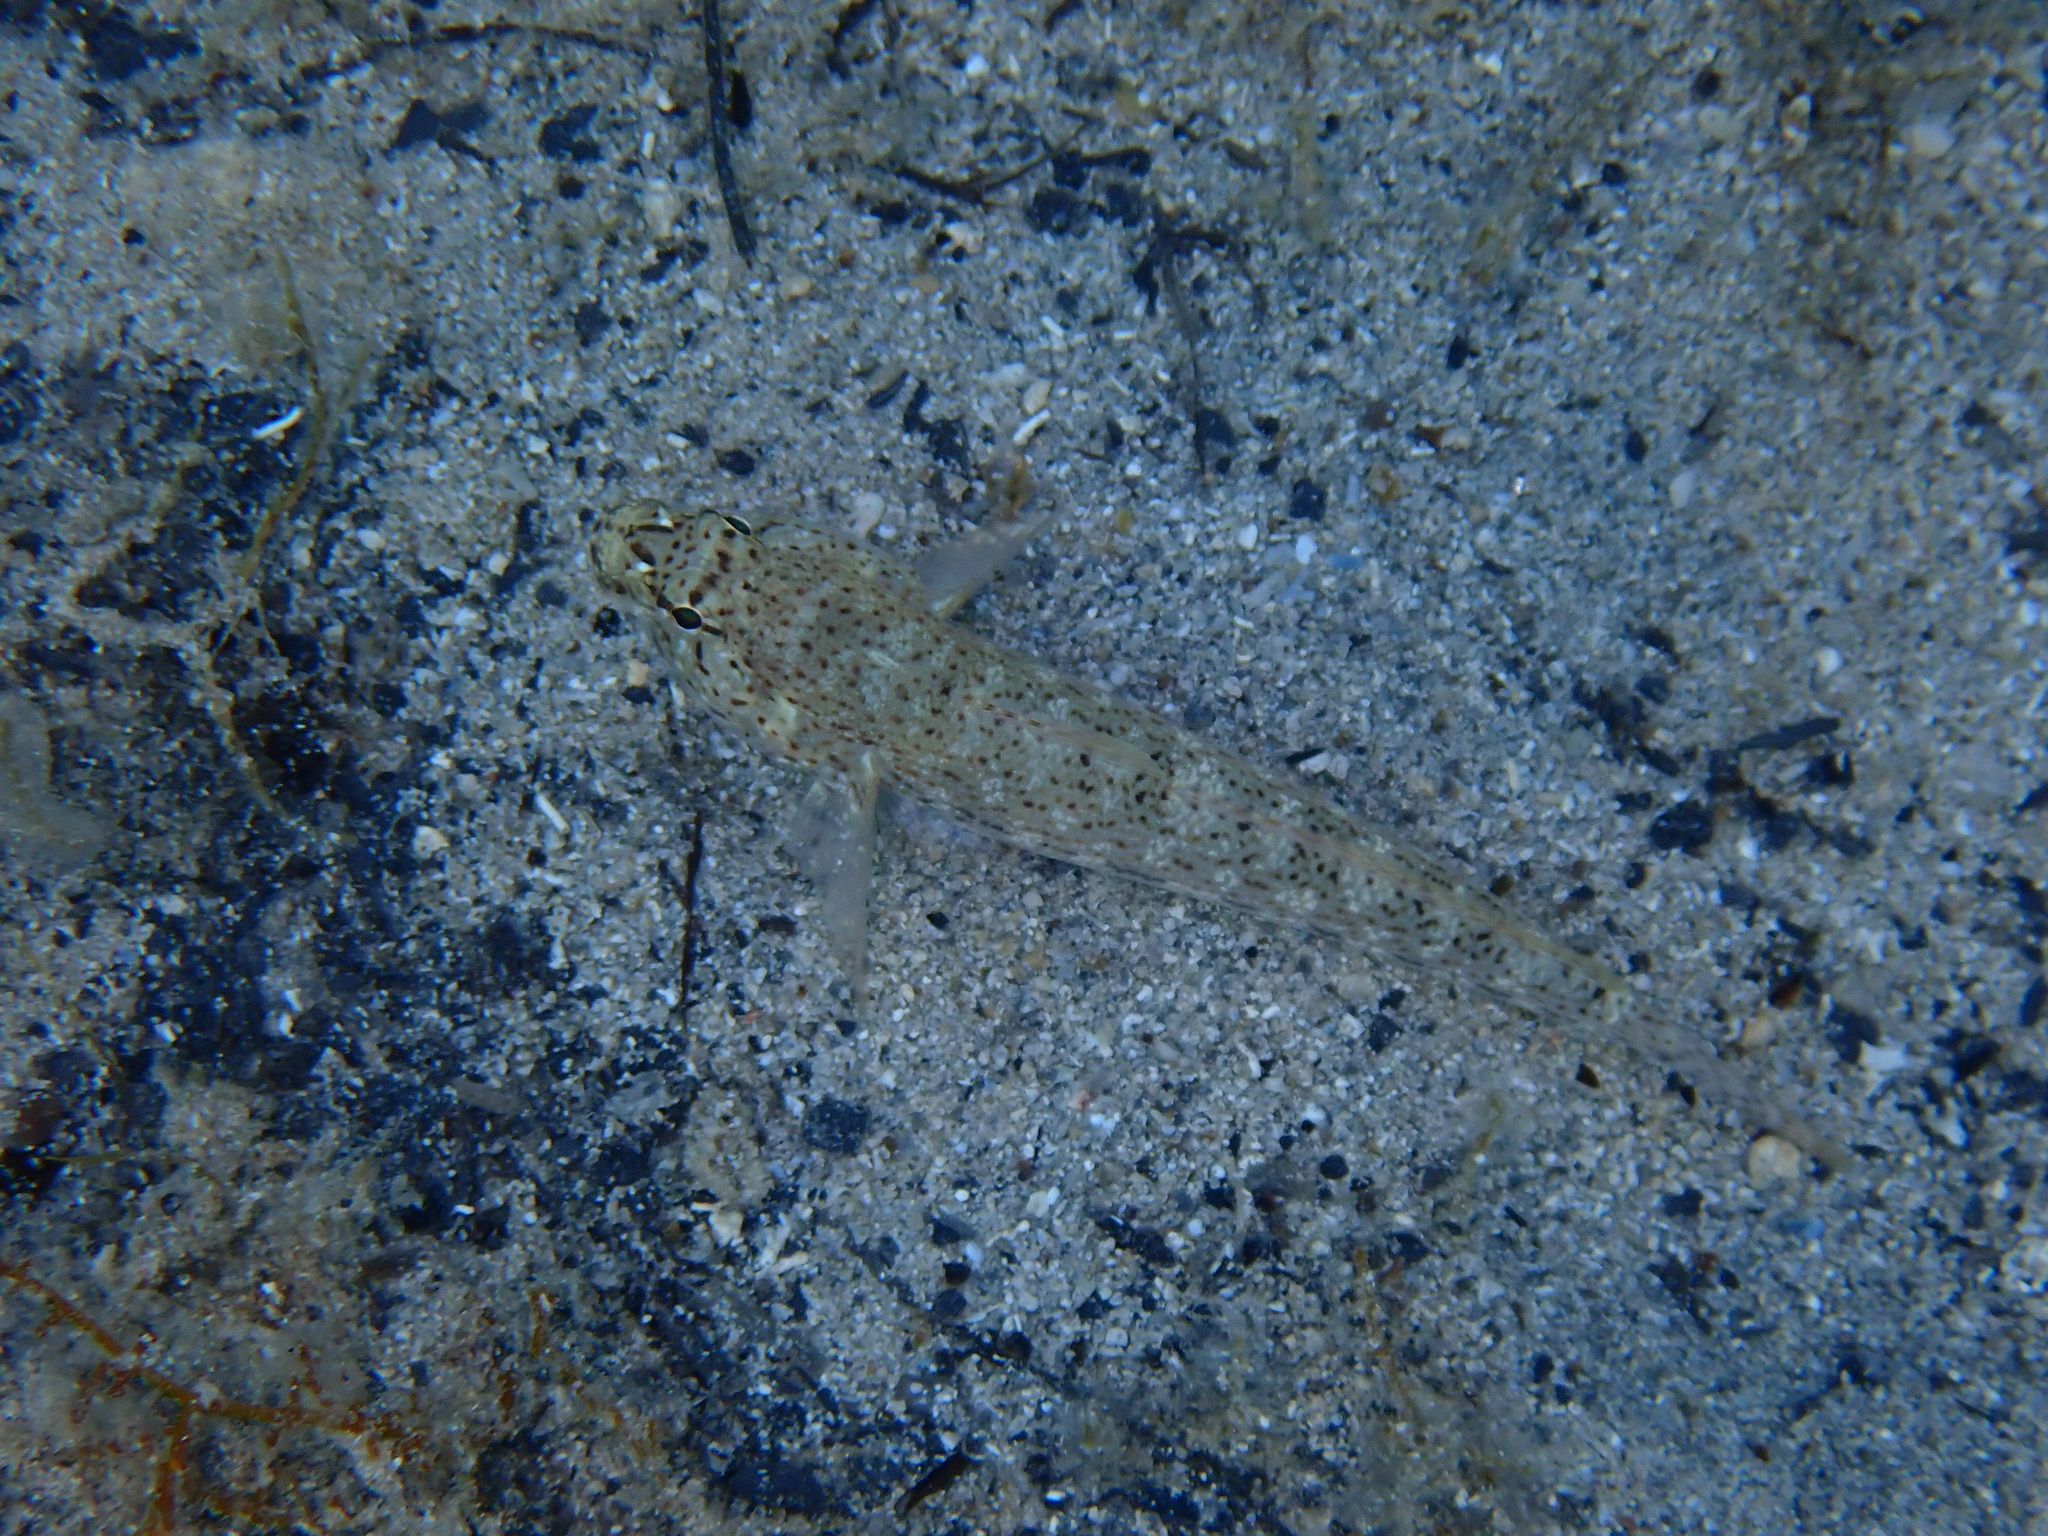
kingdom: Animalia
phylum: Chordata
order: Perciformes
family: Gobiidae
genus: Gobius
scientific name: Gobius incognitus
